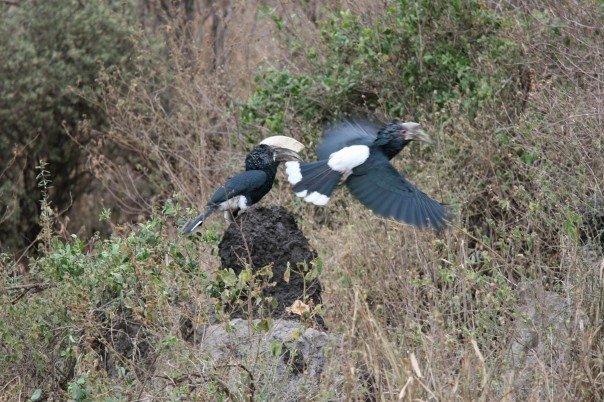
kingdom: Animalia
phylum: Chordata
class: Aves
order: Bucerotiformes
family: Bucerotidae
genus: Bycanistes
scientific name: Bycanistes brevis
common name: Silvery-cheeked hornbill
